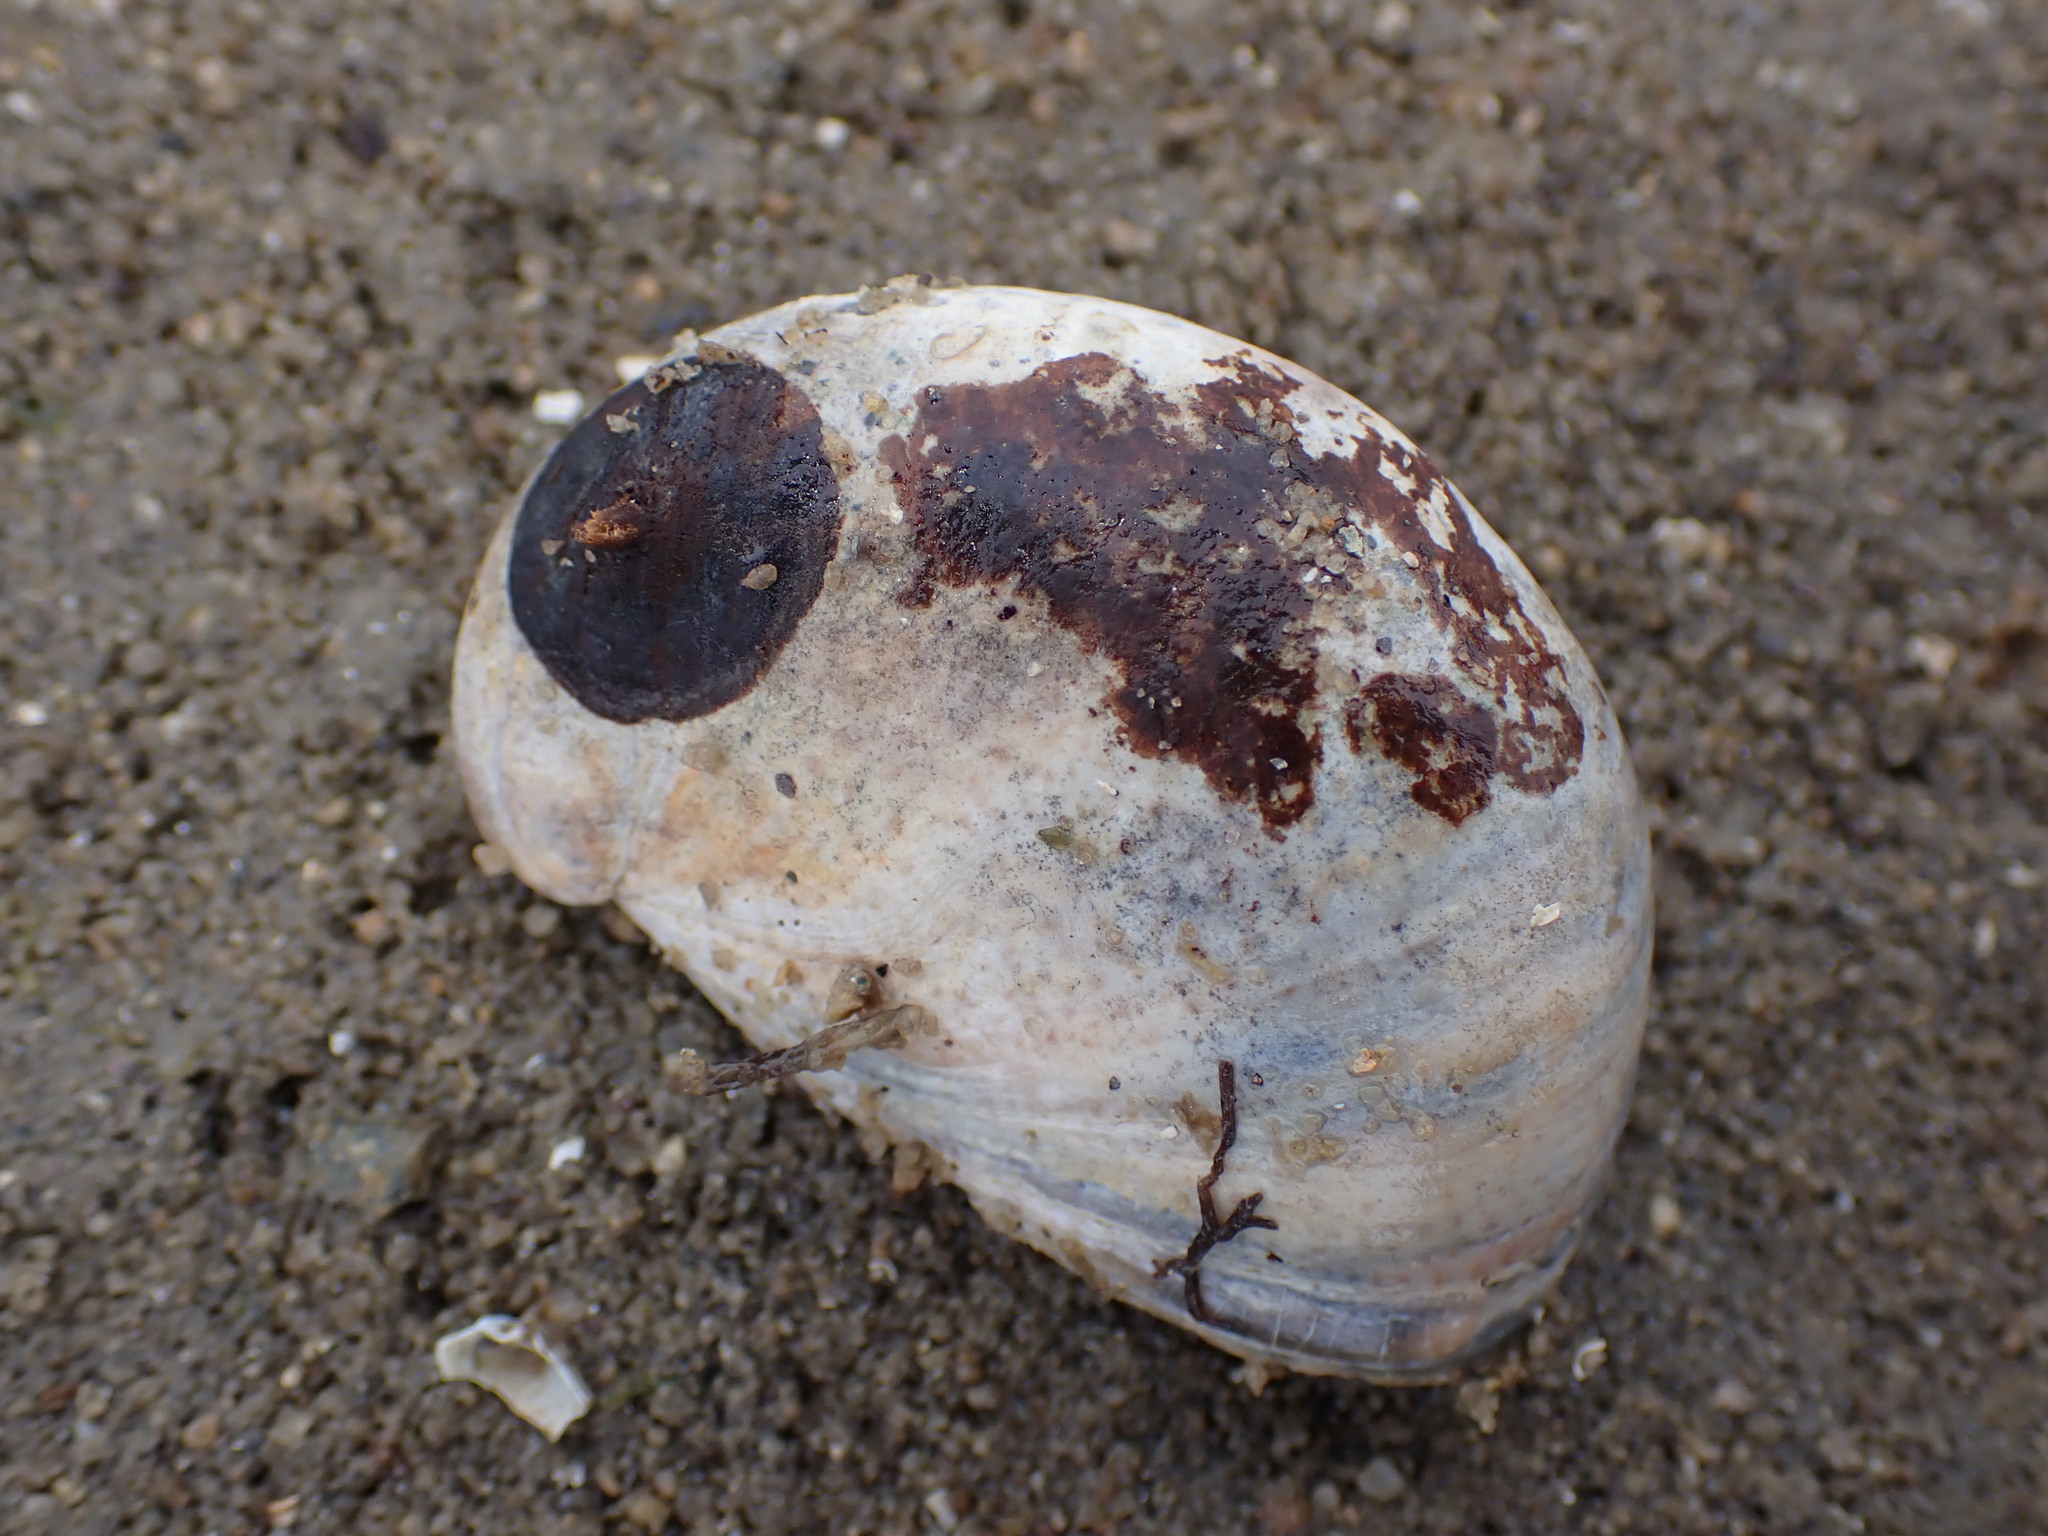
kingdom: Animalia
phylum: Mollusca
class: Gastropoda
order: Littorinimorpha
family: Calyptraeidae
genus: Crepidula
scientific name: Crepidula fornicata
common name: Slipper limpet
